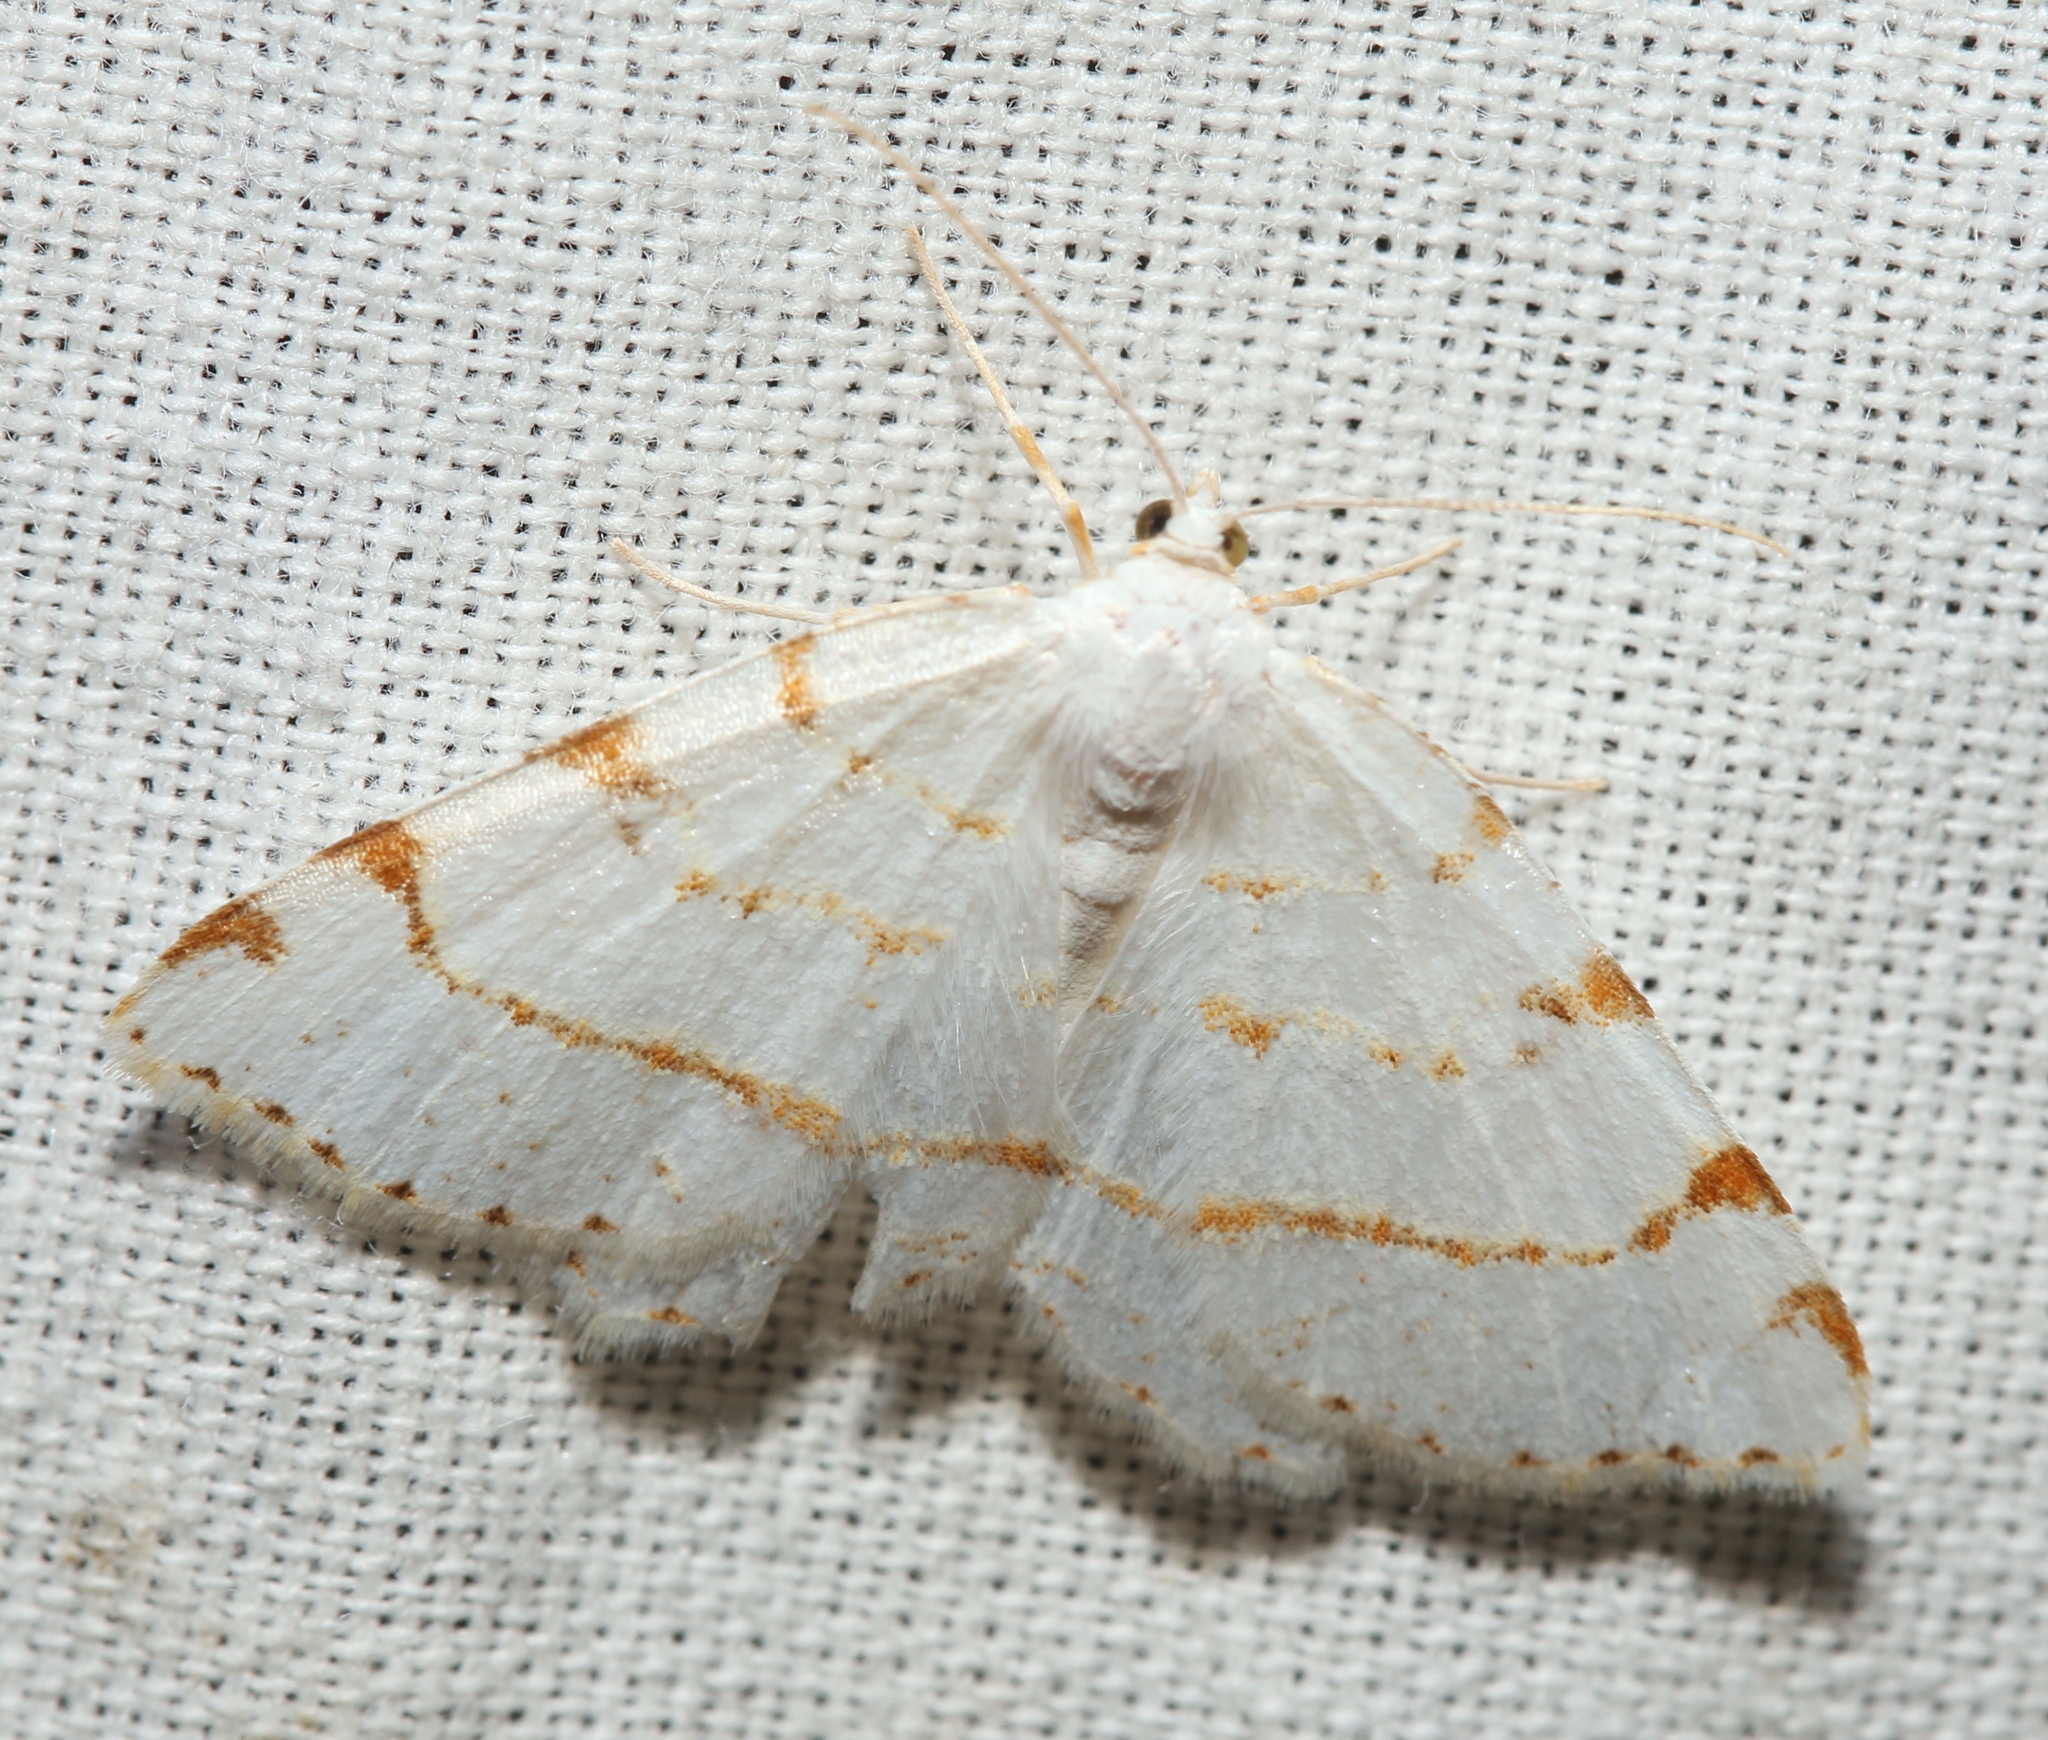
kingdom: Animalia
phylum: Arthropoda
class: Insecta
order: Lepidoptera
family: Geometridae
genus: Macaria
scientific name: Macaria pustularia
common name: Lesser maple spanworm moth
